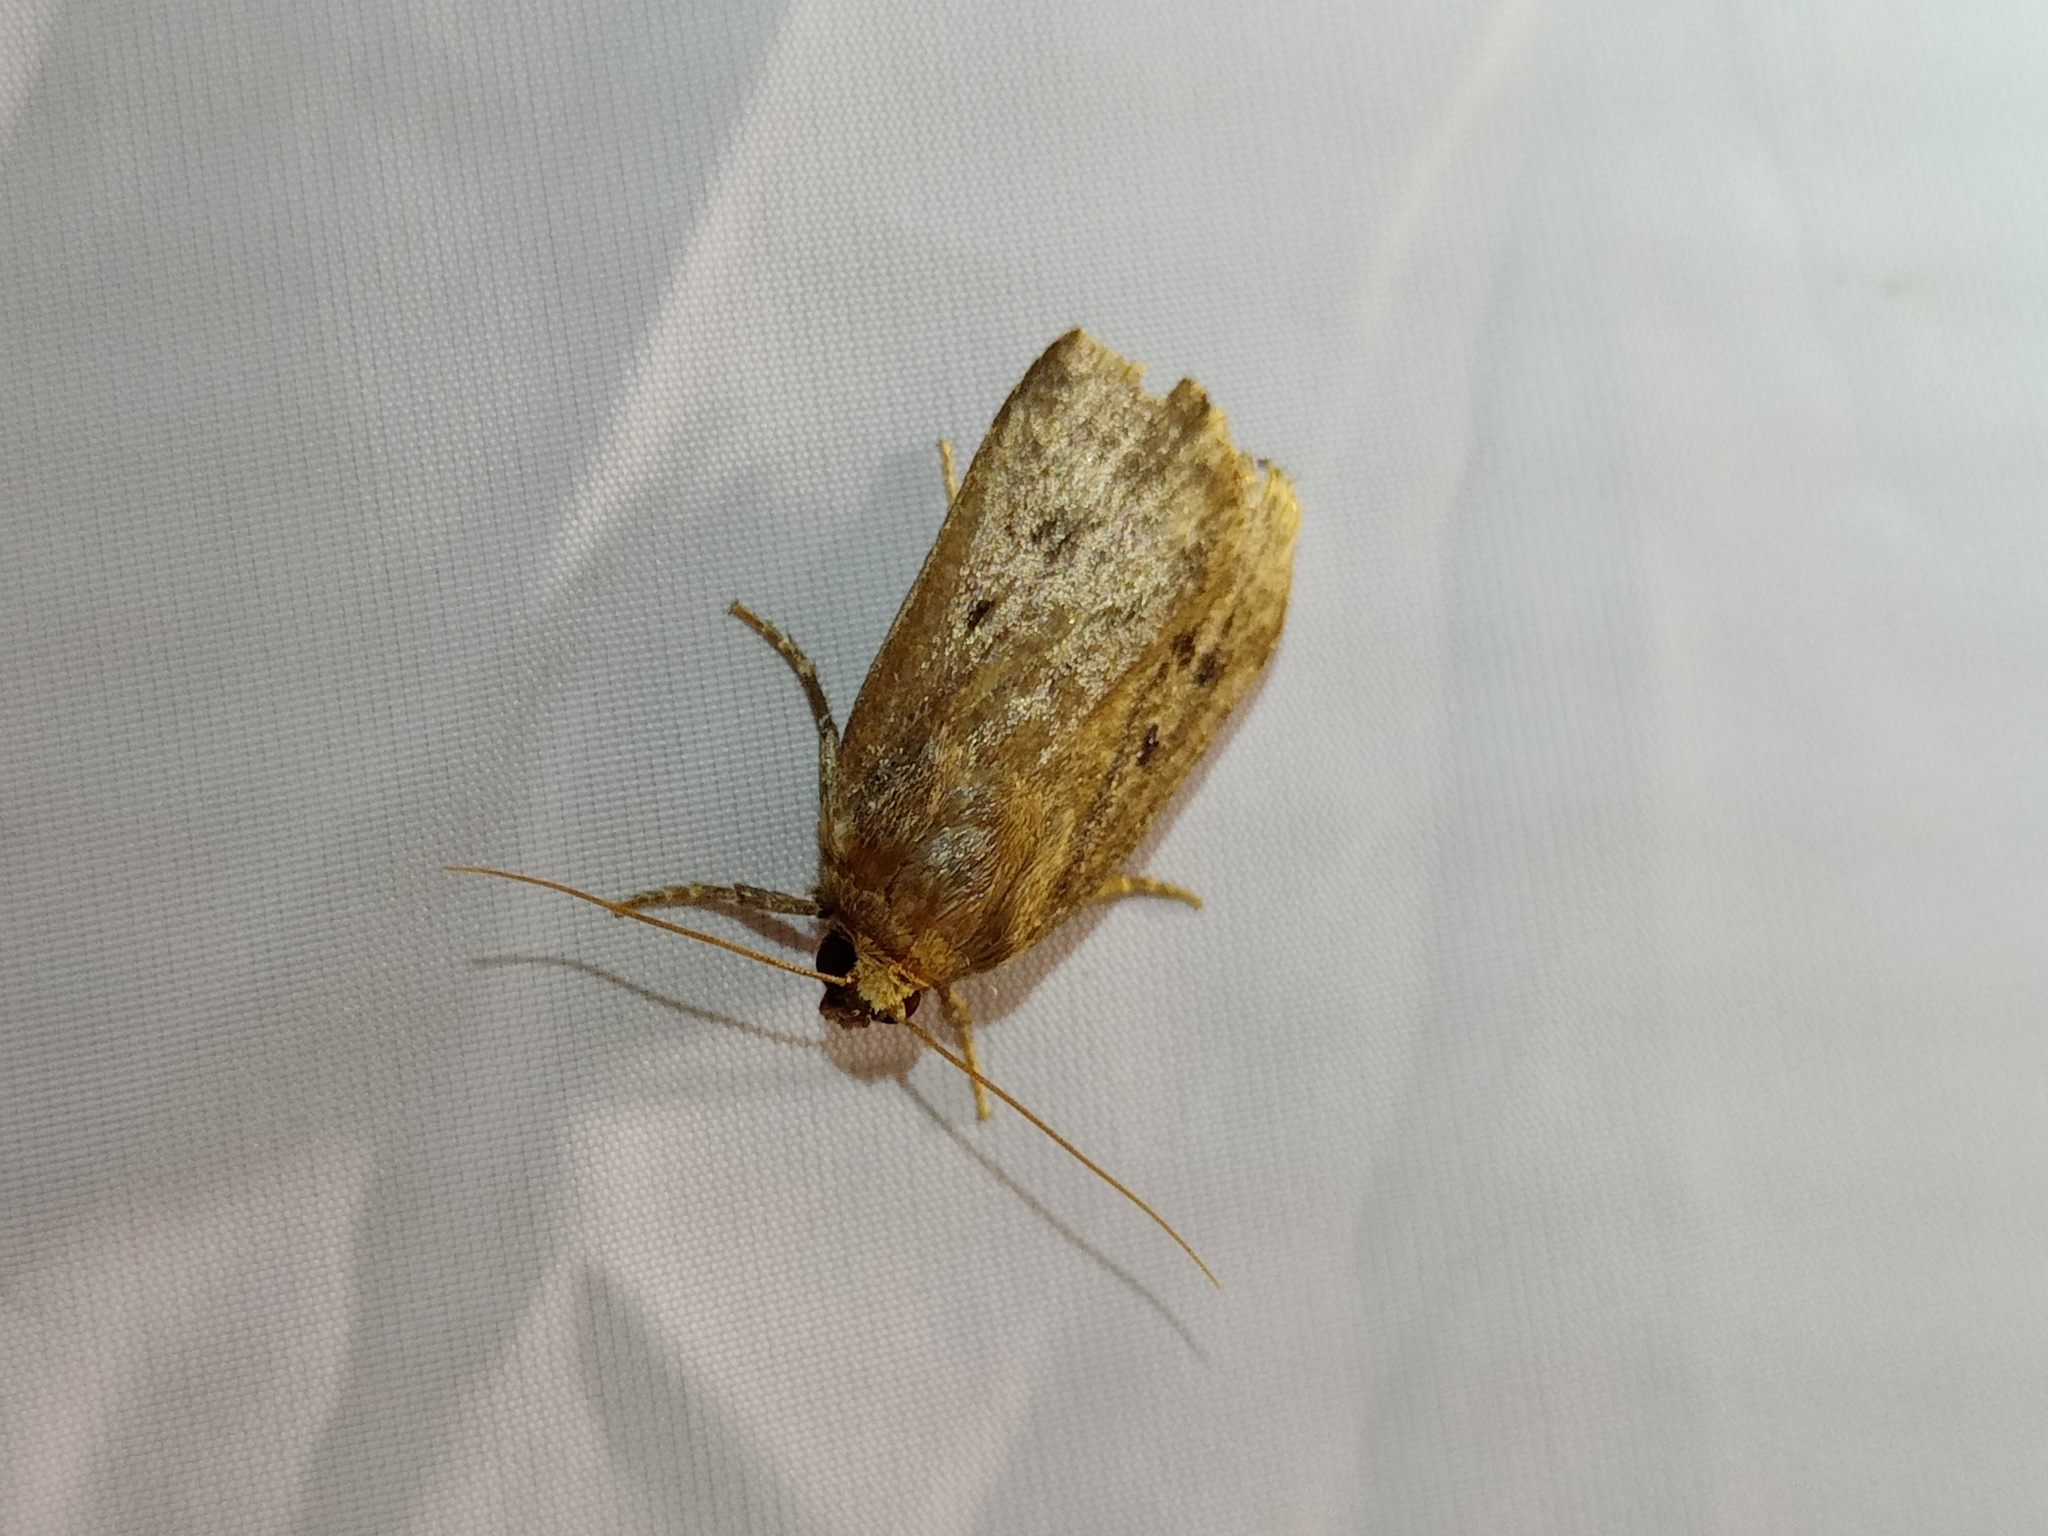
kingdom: Animalia
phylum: Arthropoda
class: Insecta
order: Lepidoptera
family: Noctuidae
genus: Amphipyra
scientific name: Amphipyra tragopoginis
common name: Mouse moth
